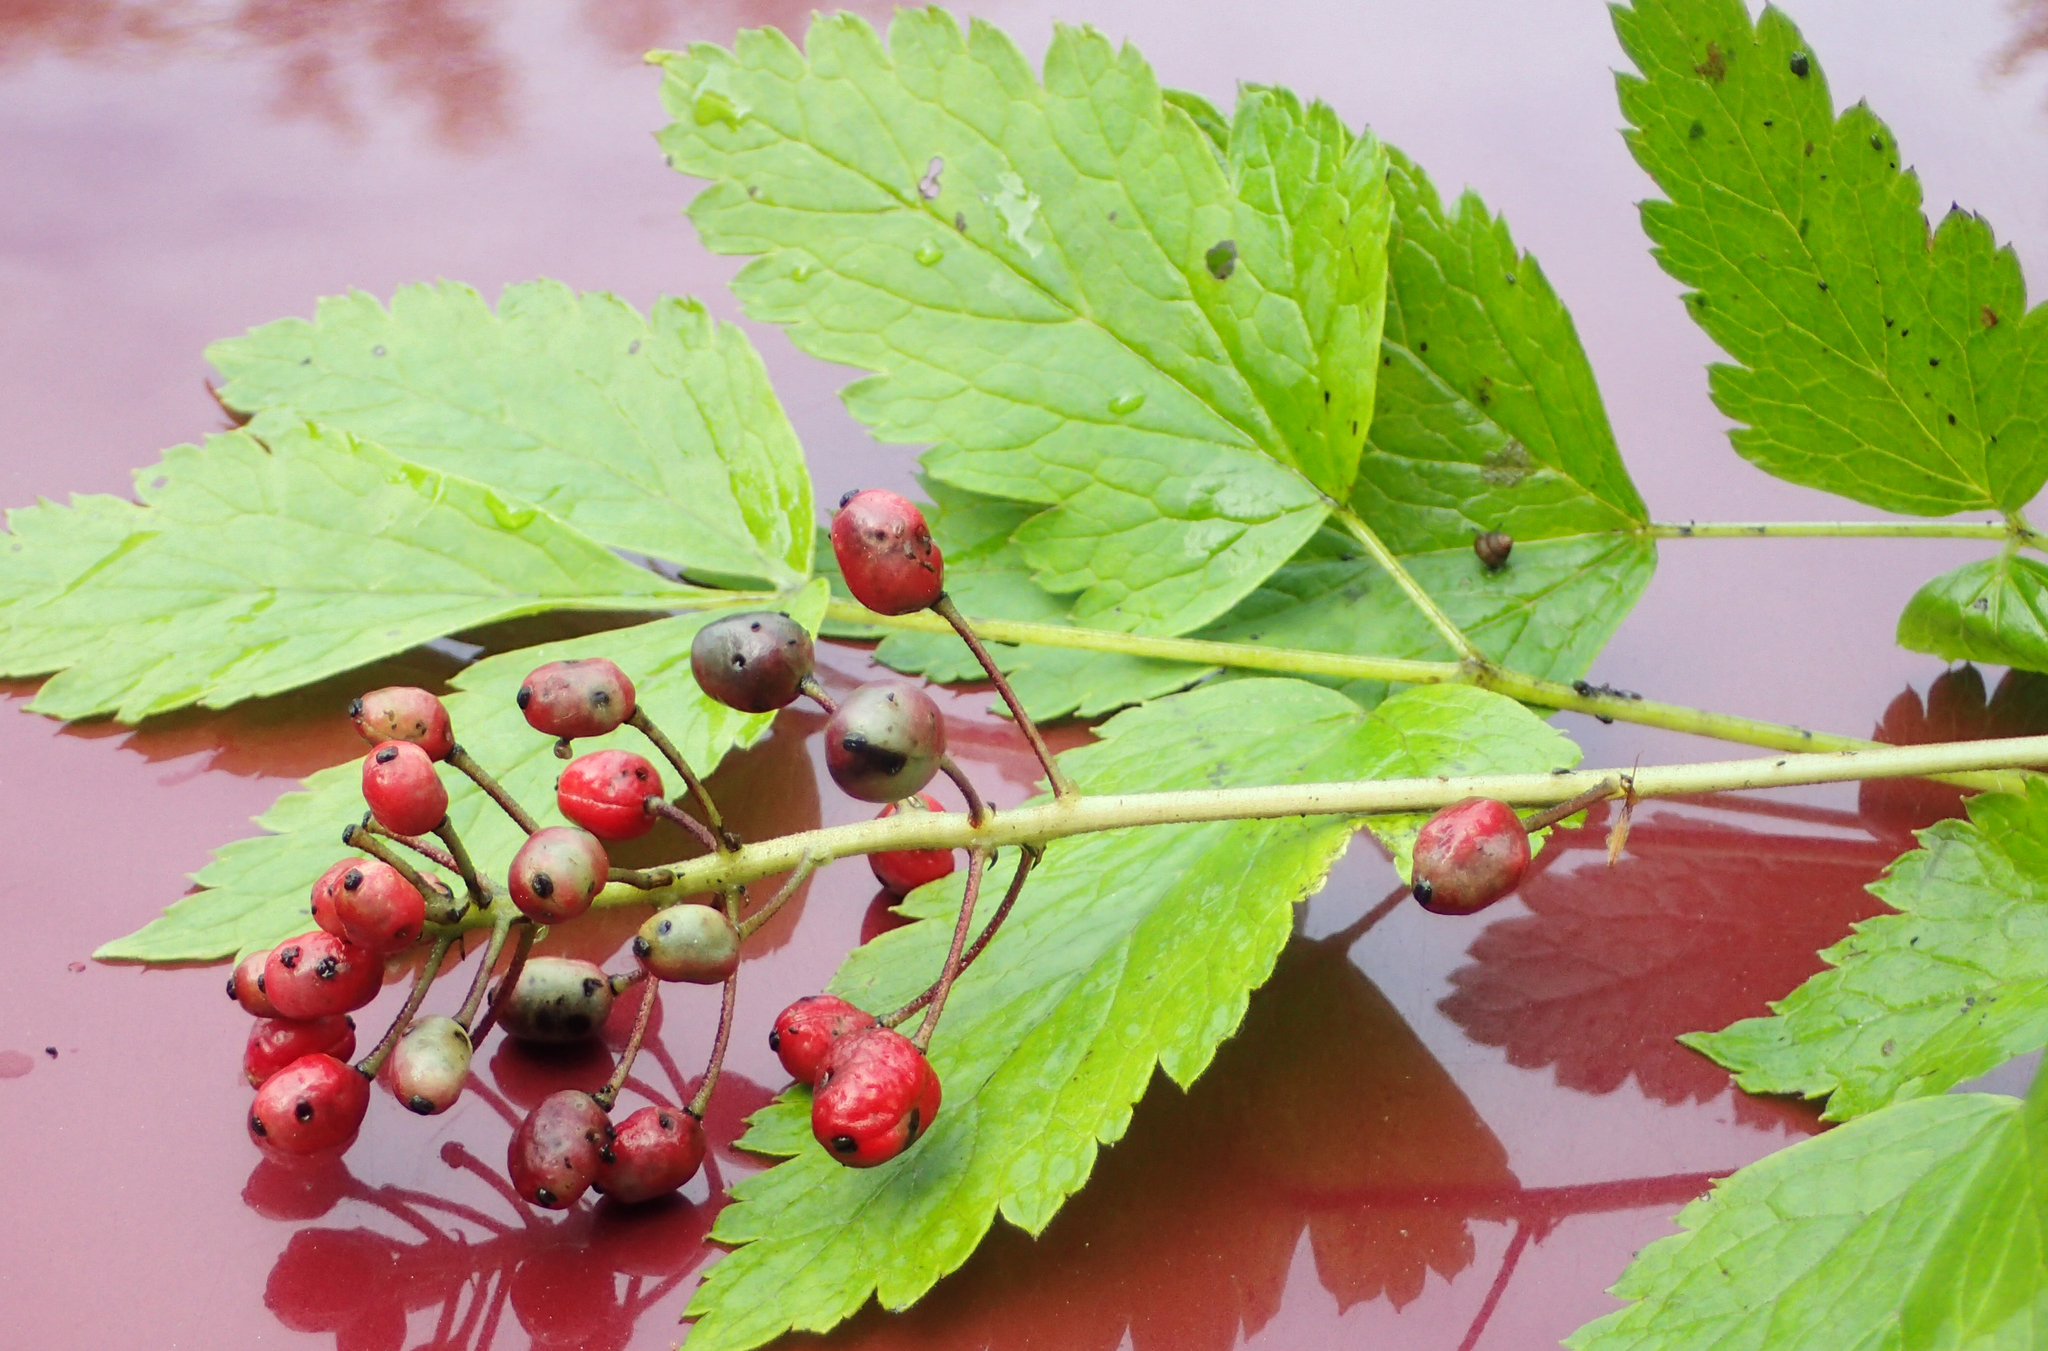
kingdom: Plantae
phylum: Tracheophyta
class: Magnoliopsida
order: Ranunculales
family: Ranunculaceae
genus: Actaea
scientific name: Actaea rubra
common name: Red baneberry
